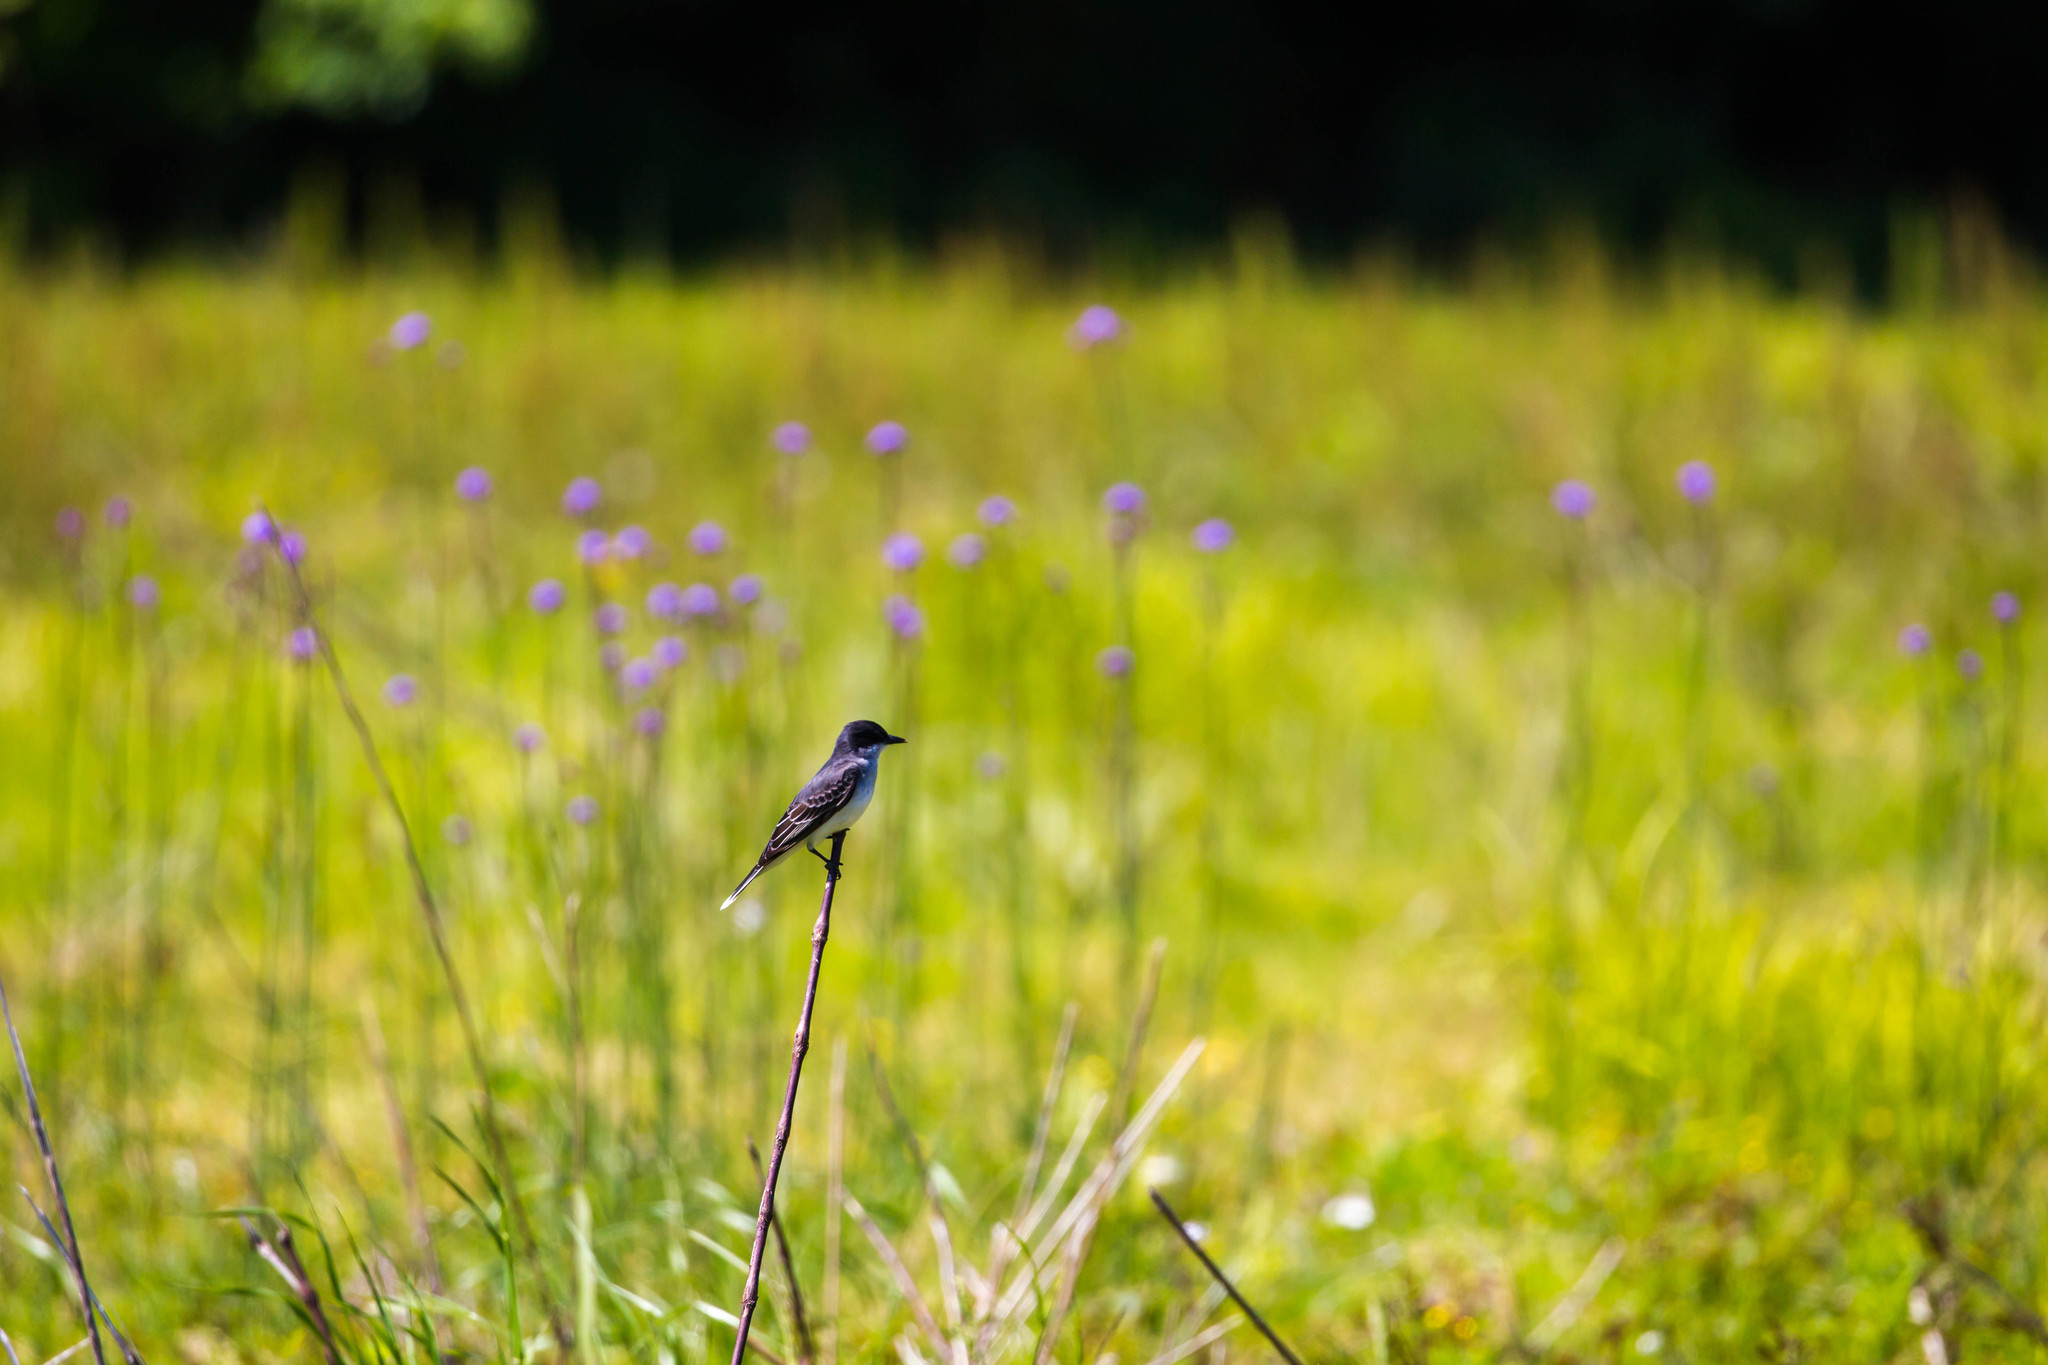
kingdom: Animalia
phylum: Chordata
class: Aves
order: Passeriformes
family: Tyrannidae
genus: Tyrannus
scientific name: Tyrannus tyrannus
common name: Eastern kingbird
